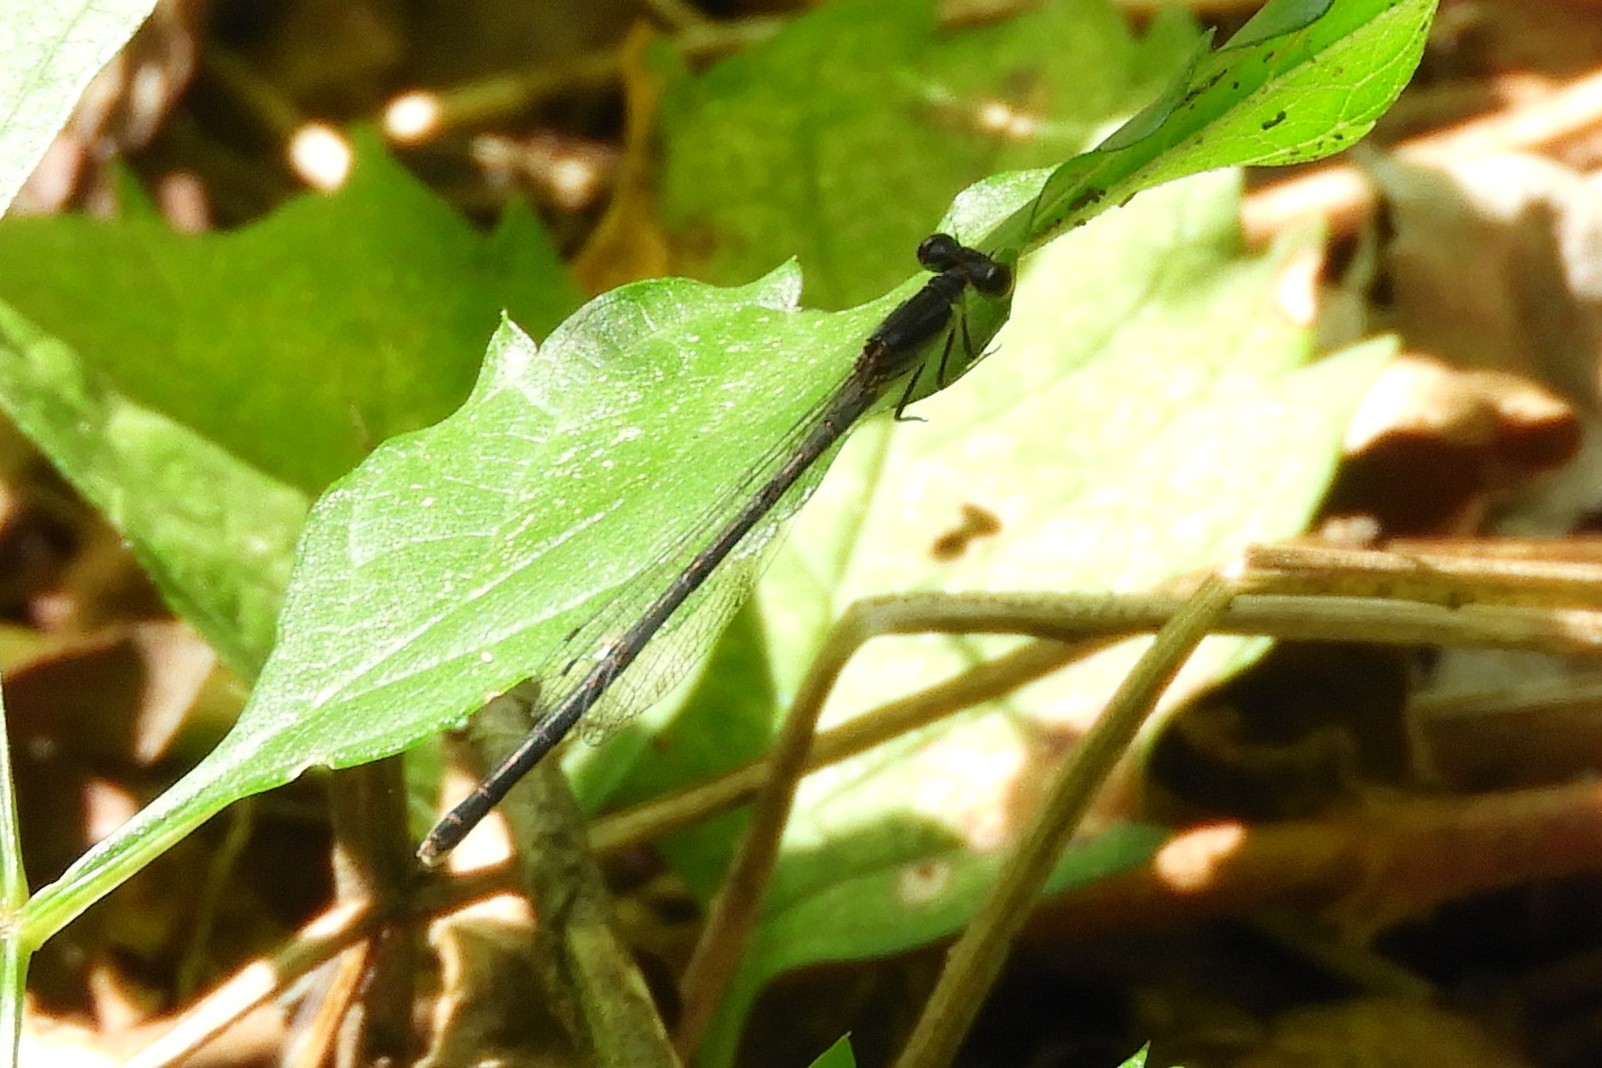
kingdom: Animalia
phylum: Arthropoda
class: Insecta
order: Odonata
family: Coenagrionidae
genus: Ischnura
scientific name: Ischnura posita
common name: Fragile forktail
